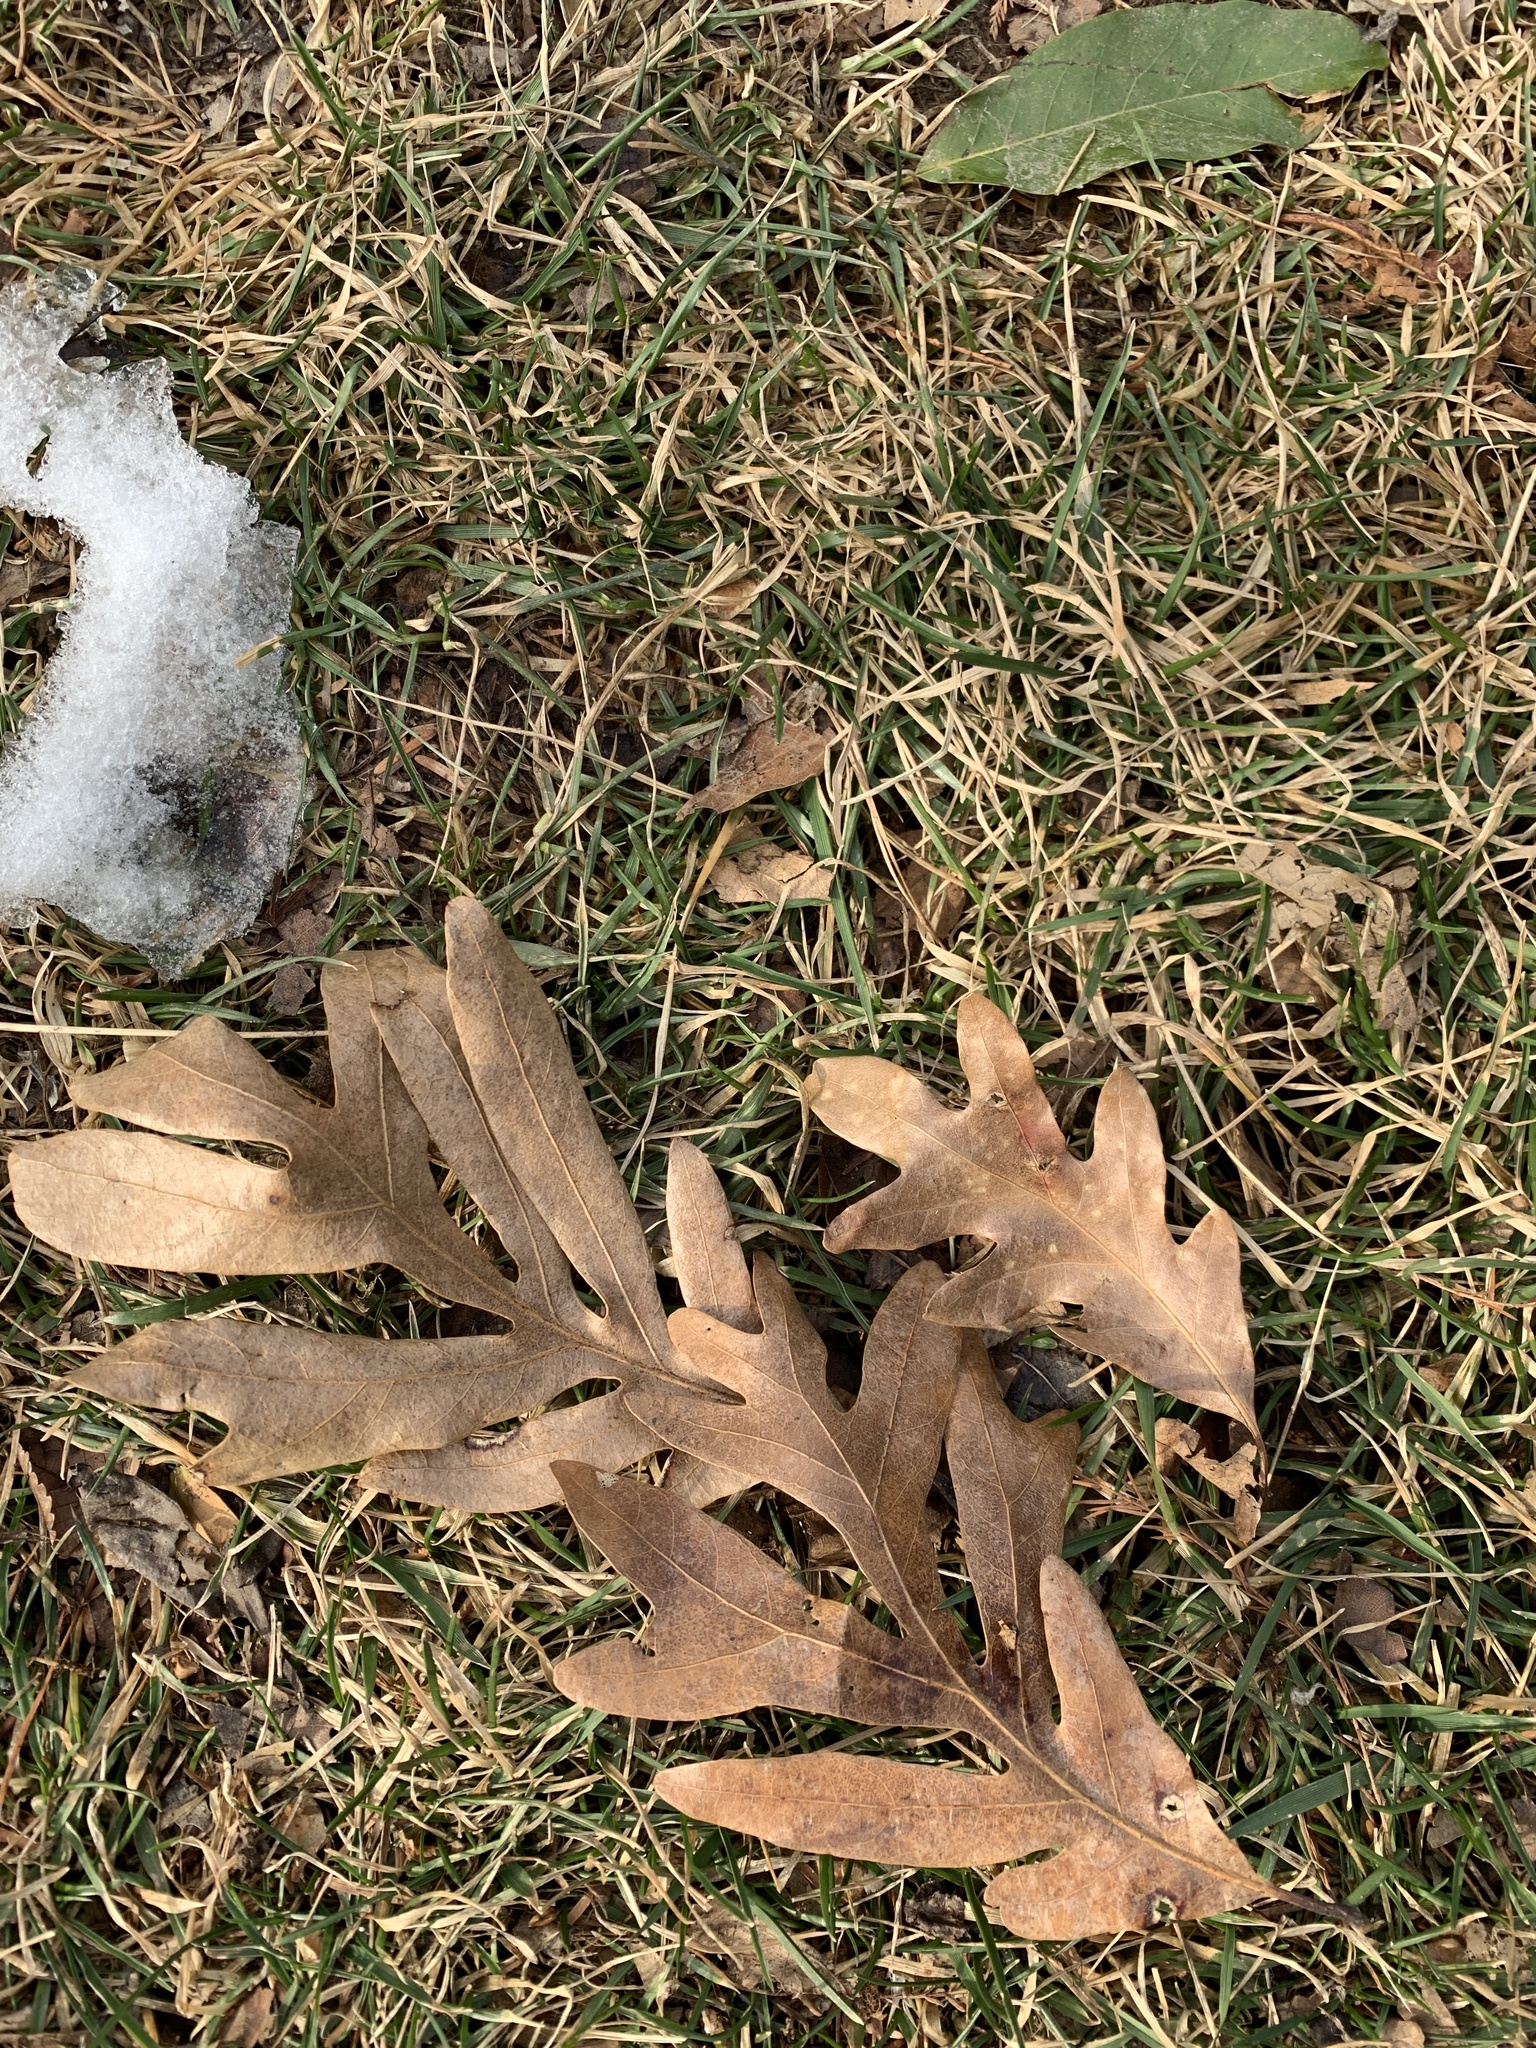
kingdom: Plantae
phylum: Tracheophyta
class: Magnoliopsida
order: Fagales
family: Fagaceae
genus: Quercus
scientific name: Quercus alba
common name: White oak
